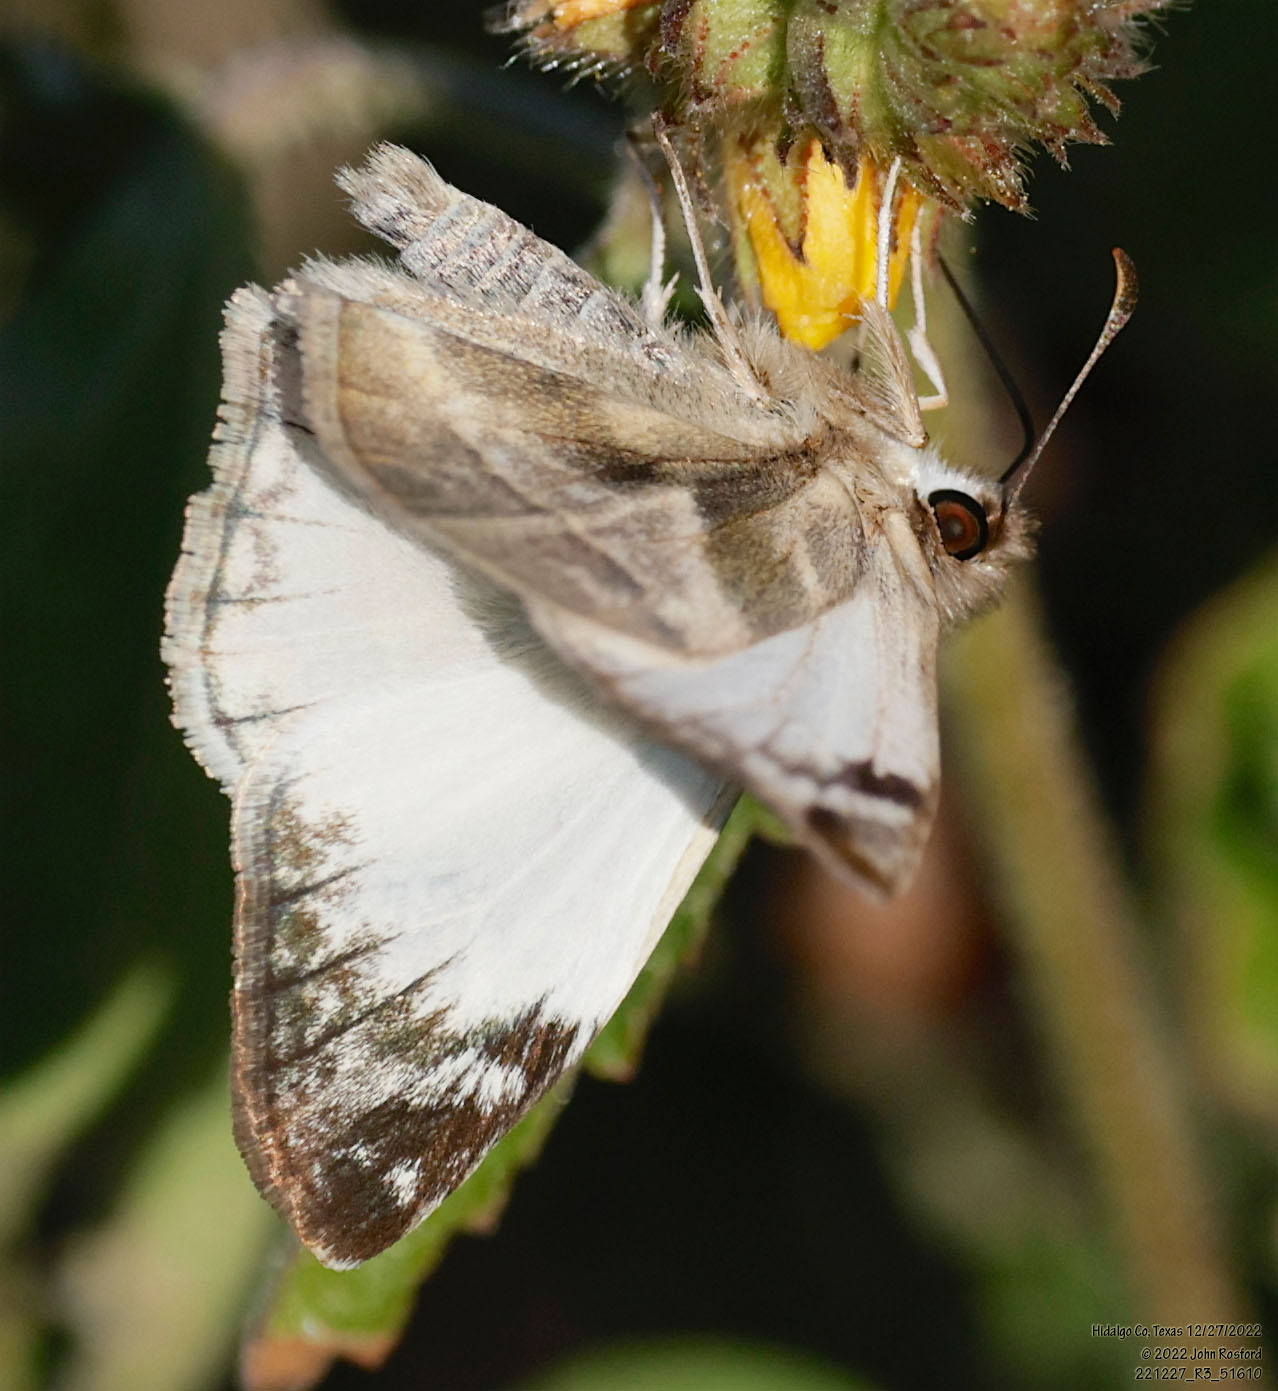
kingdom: Animalia
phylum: Arthropoda
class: Insecta
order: Lepidoptera
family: Hesperiidae
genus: Heliopetes
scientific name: Heliopetes laviana
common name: Laviana white-skipper
